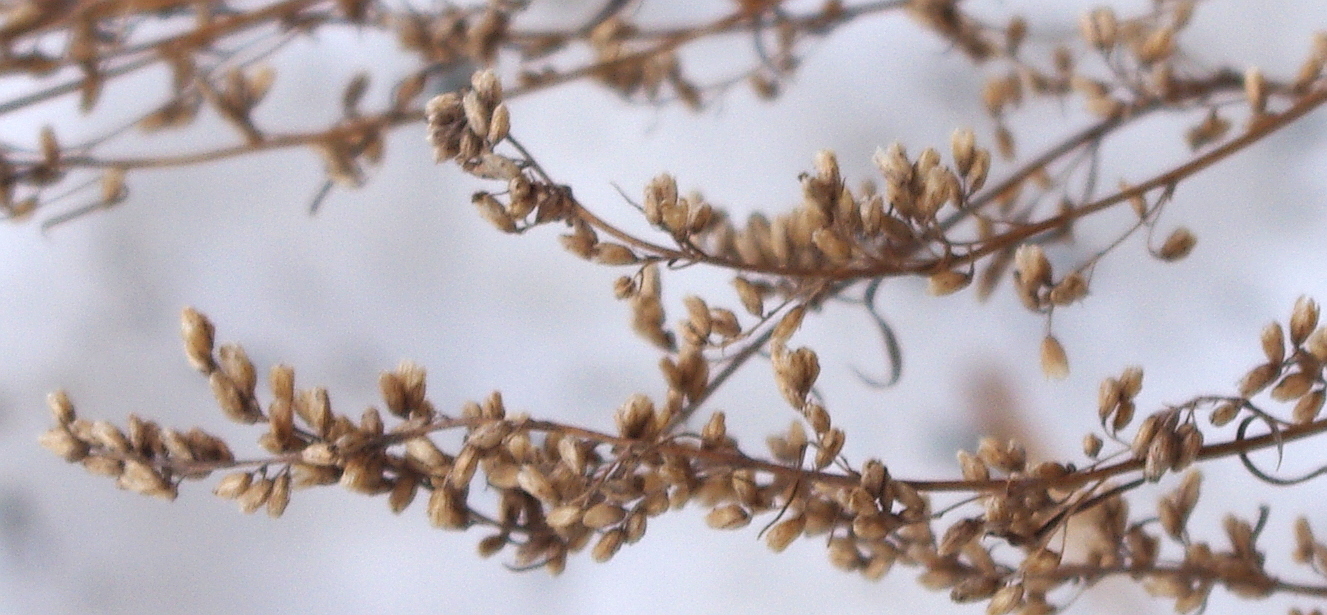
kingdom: Plantae
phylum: Tracheophyta
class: Magnoliopsida
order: Asterales
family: Asteraceae
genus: Artemisia
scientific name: Artemisia vulgaris
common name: Mugwort
